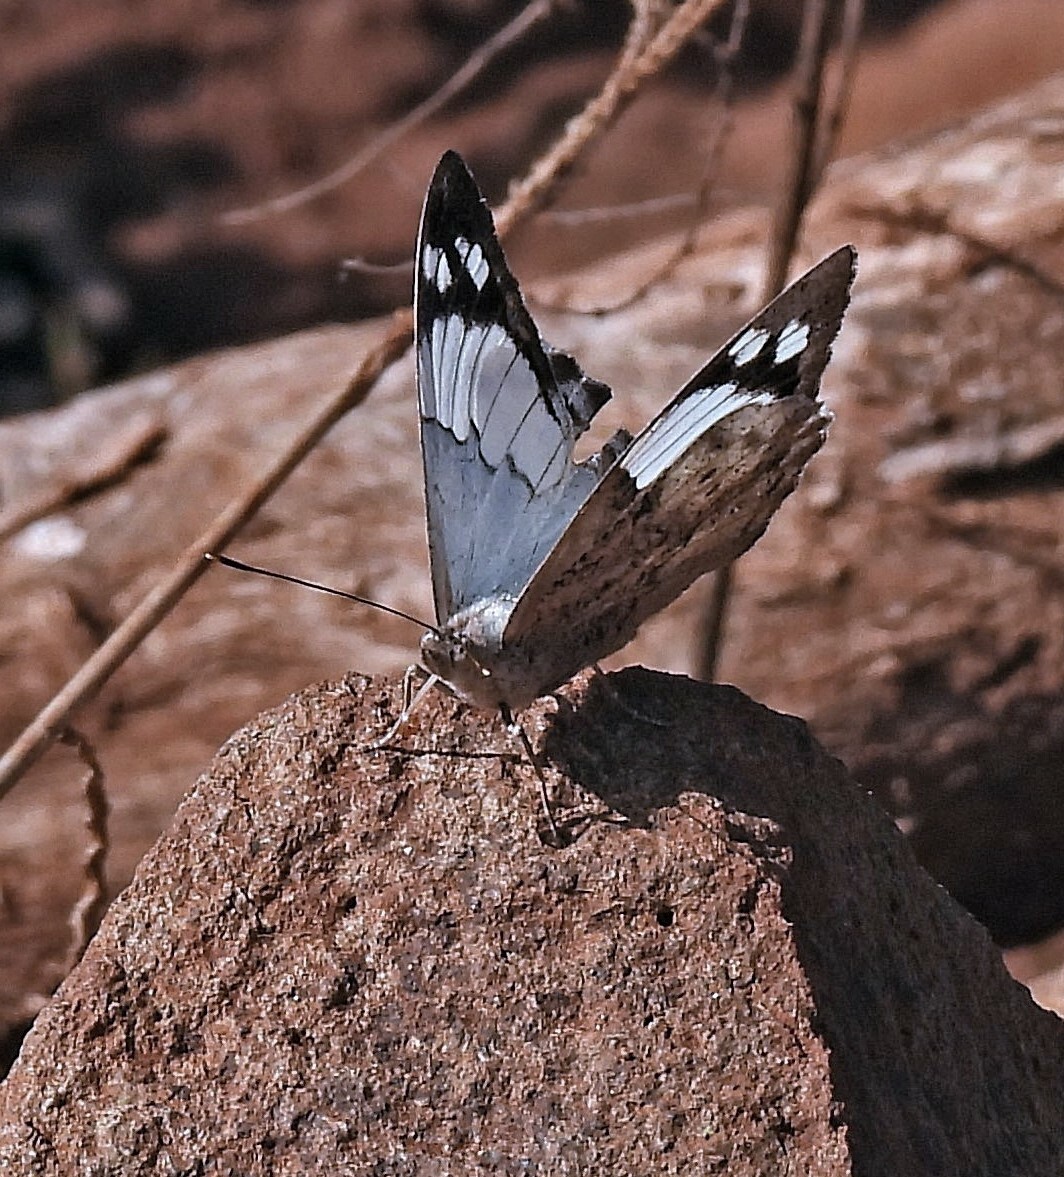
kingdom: Animalia
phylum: Arthropoda
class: Insecta
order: Lepidoptera
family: Nymphalidae
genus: Eunica
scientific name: Eunica eburnea
